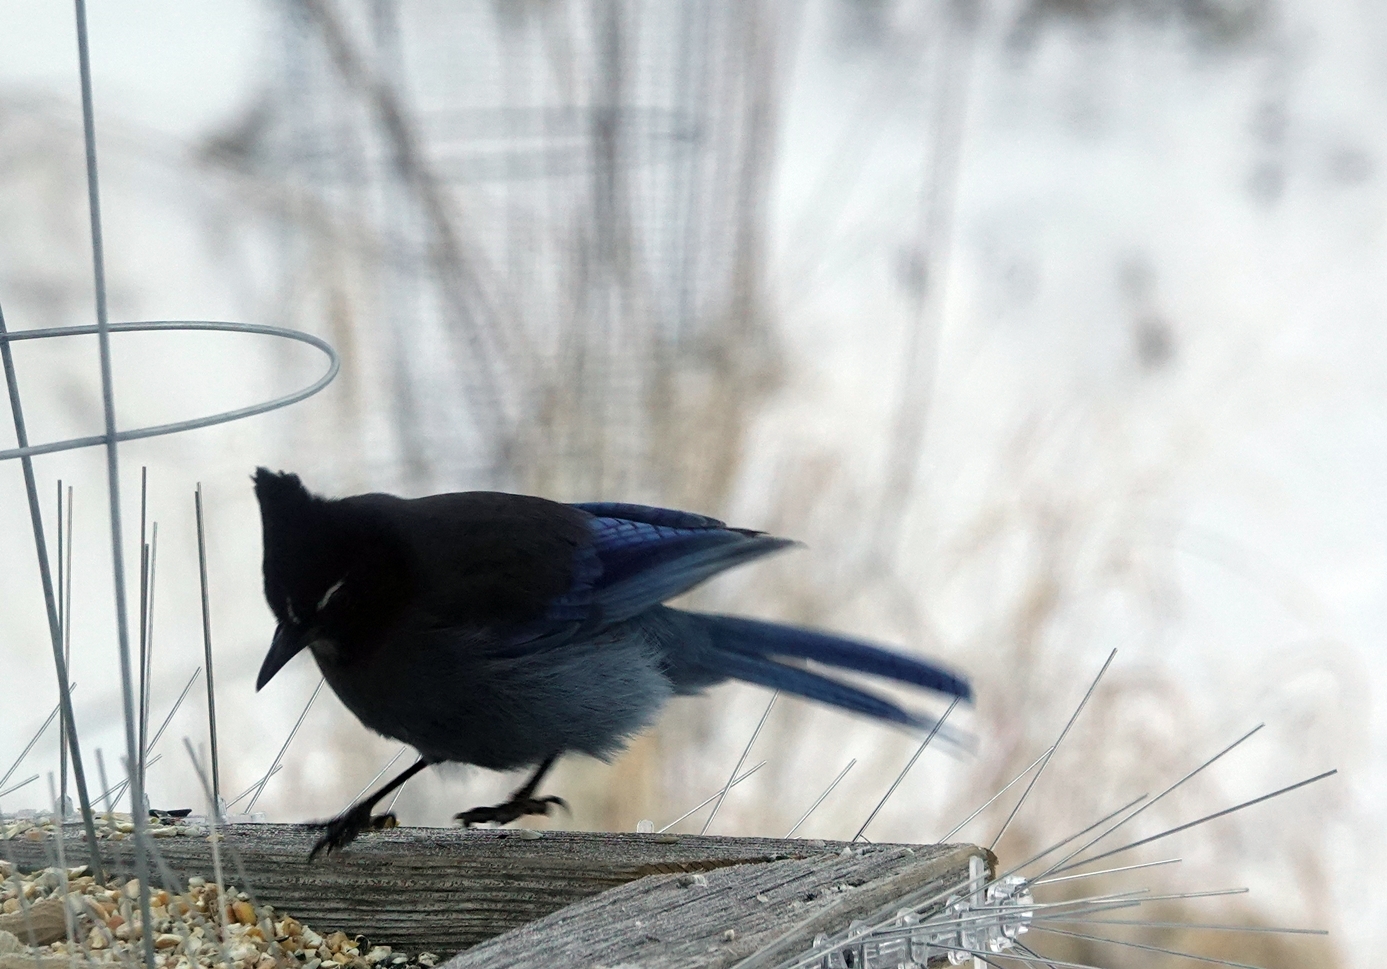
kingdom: Animalia
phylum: Chordata
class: Aves
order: Passeriformes
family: Corvidae
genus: Cyanocitta
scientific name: Cyanocitta stelleri
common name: Steller's jay
